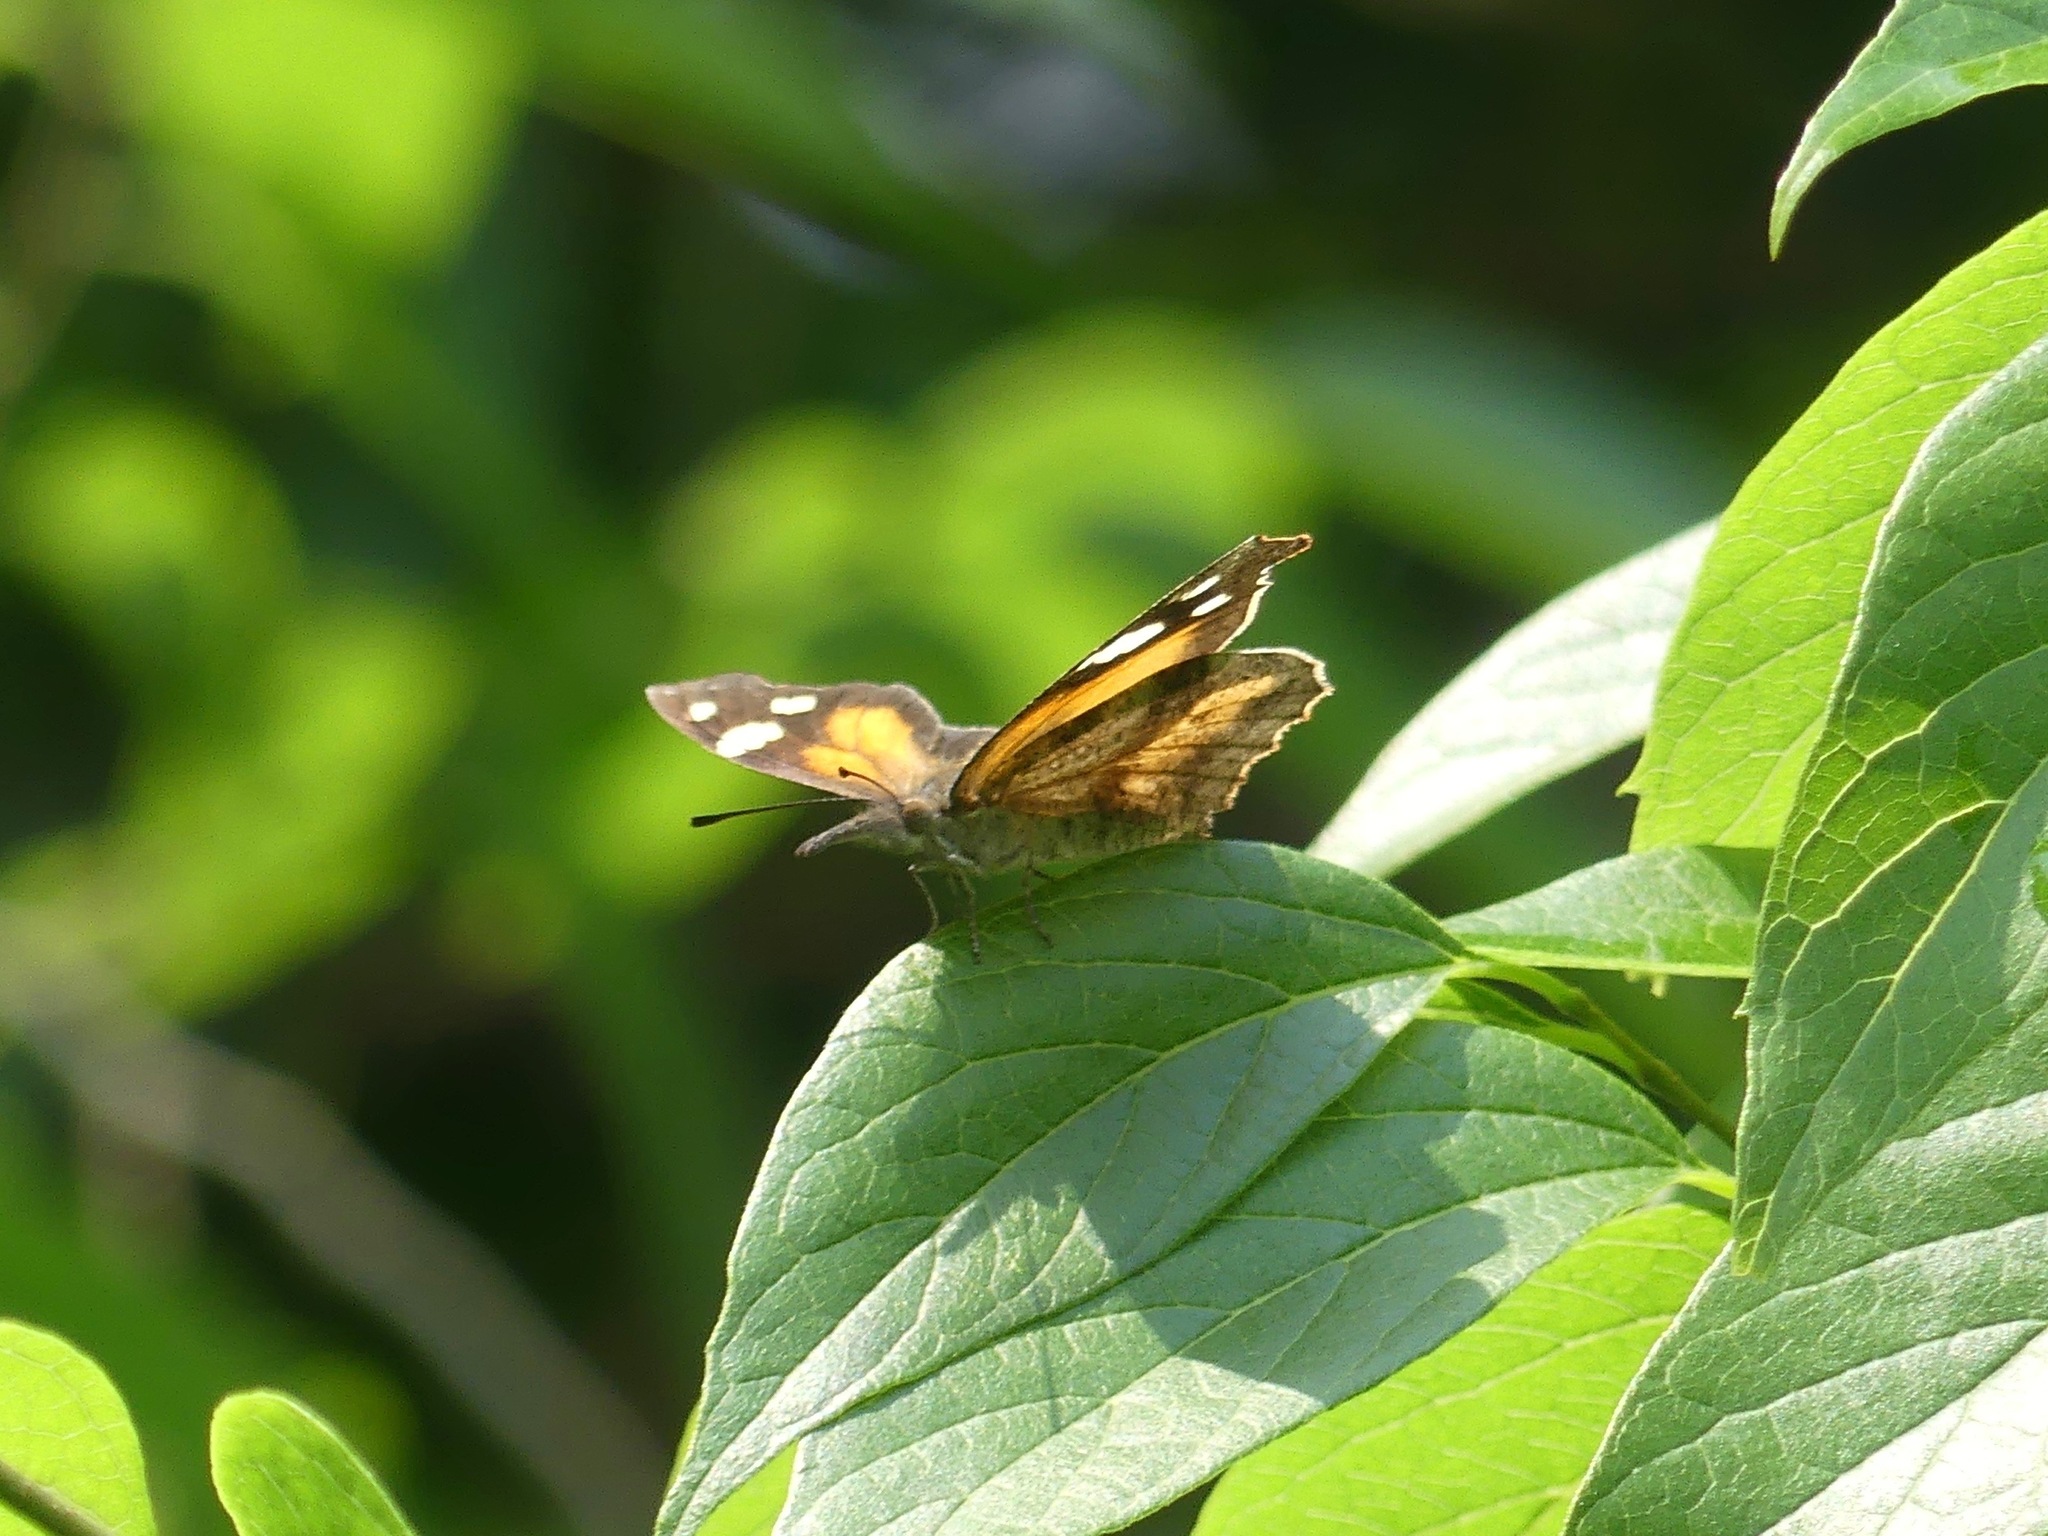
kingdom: Animalia
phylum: Arthropoda
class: Insecta
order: Lepidoptera
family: Nymphalidae
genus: Libytheana
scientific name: Libytheana carinenta
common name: American snout
